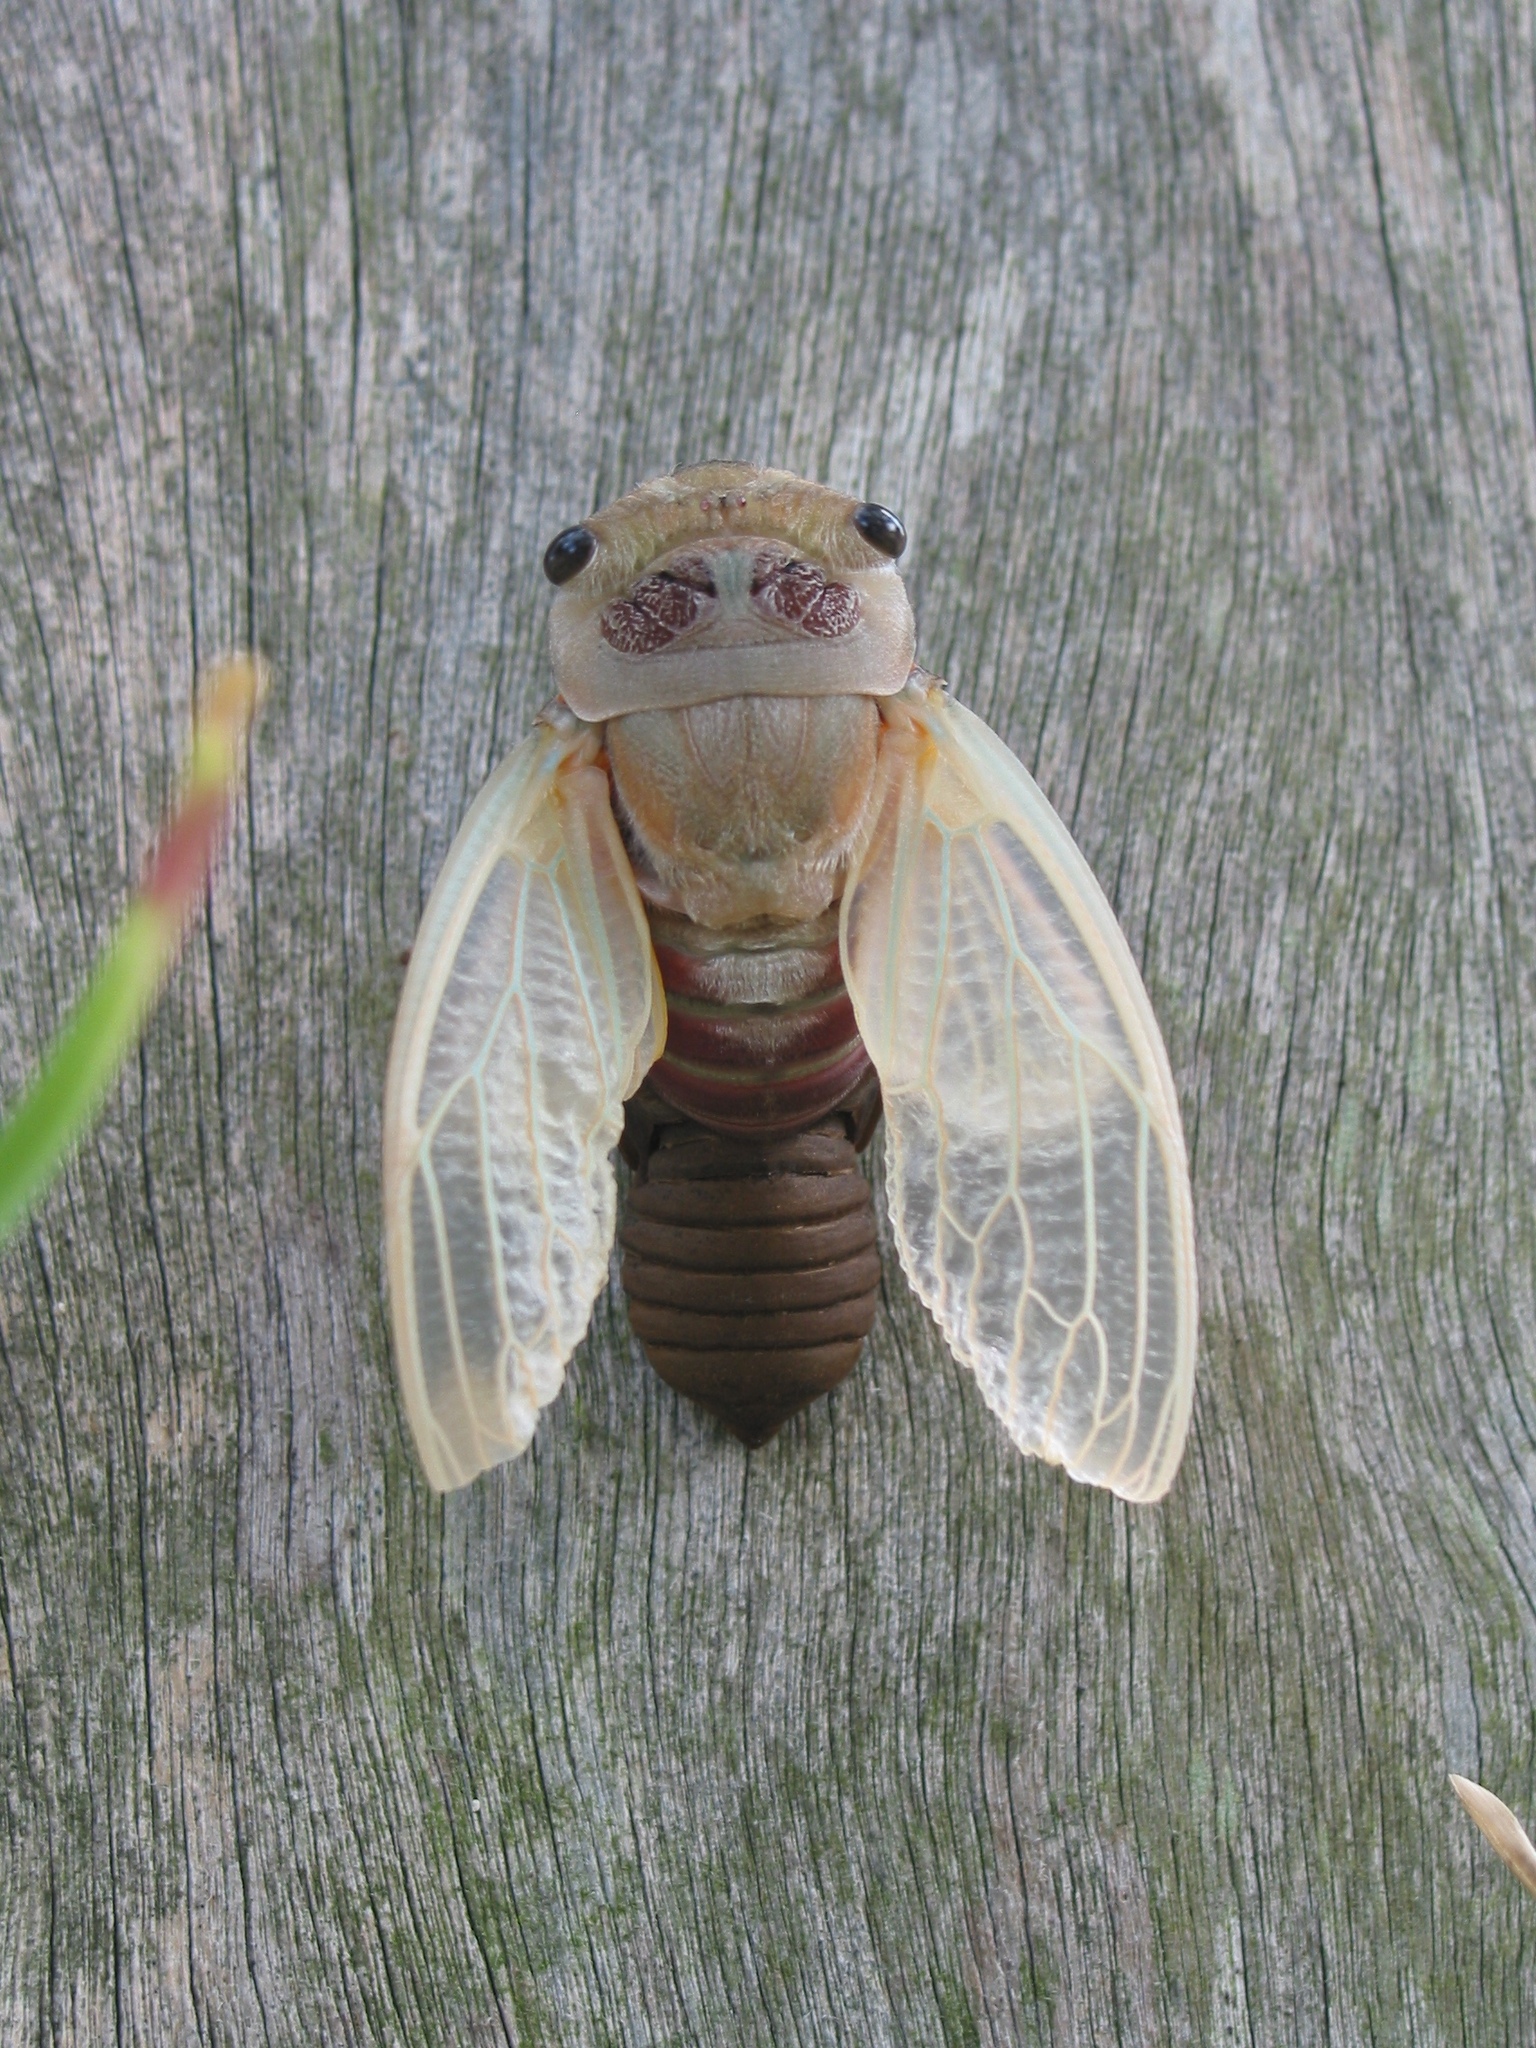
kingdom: Animalia
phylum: Arthropoda
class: Insecta
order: Hemiptera
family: Cicadidae
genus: Thopha
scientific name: Thopha saccata
